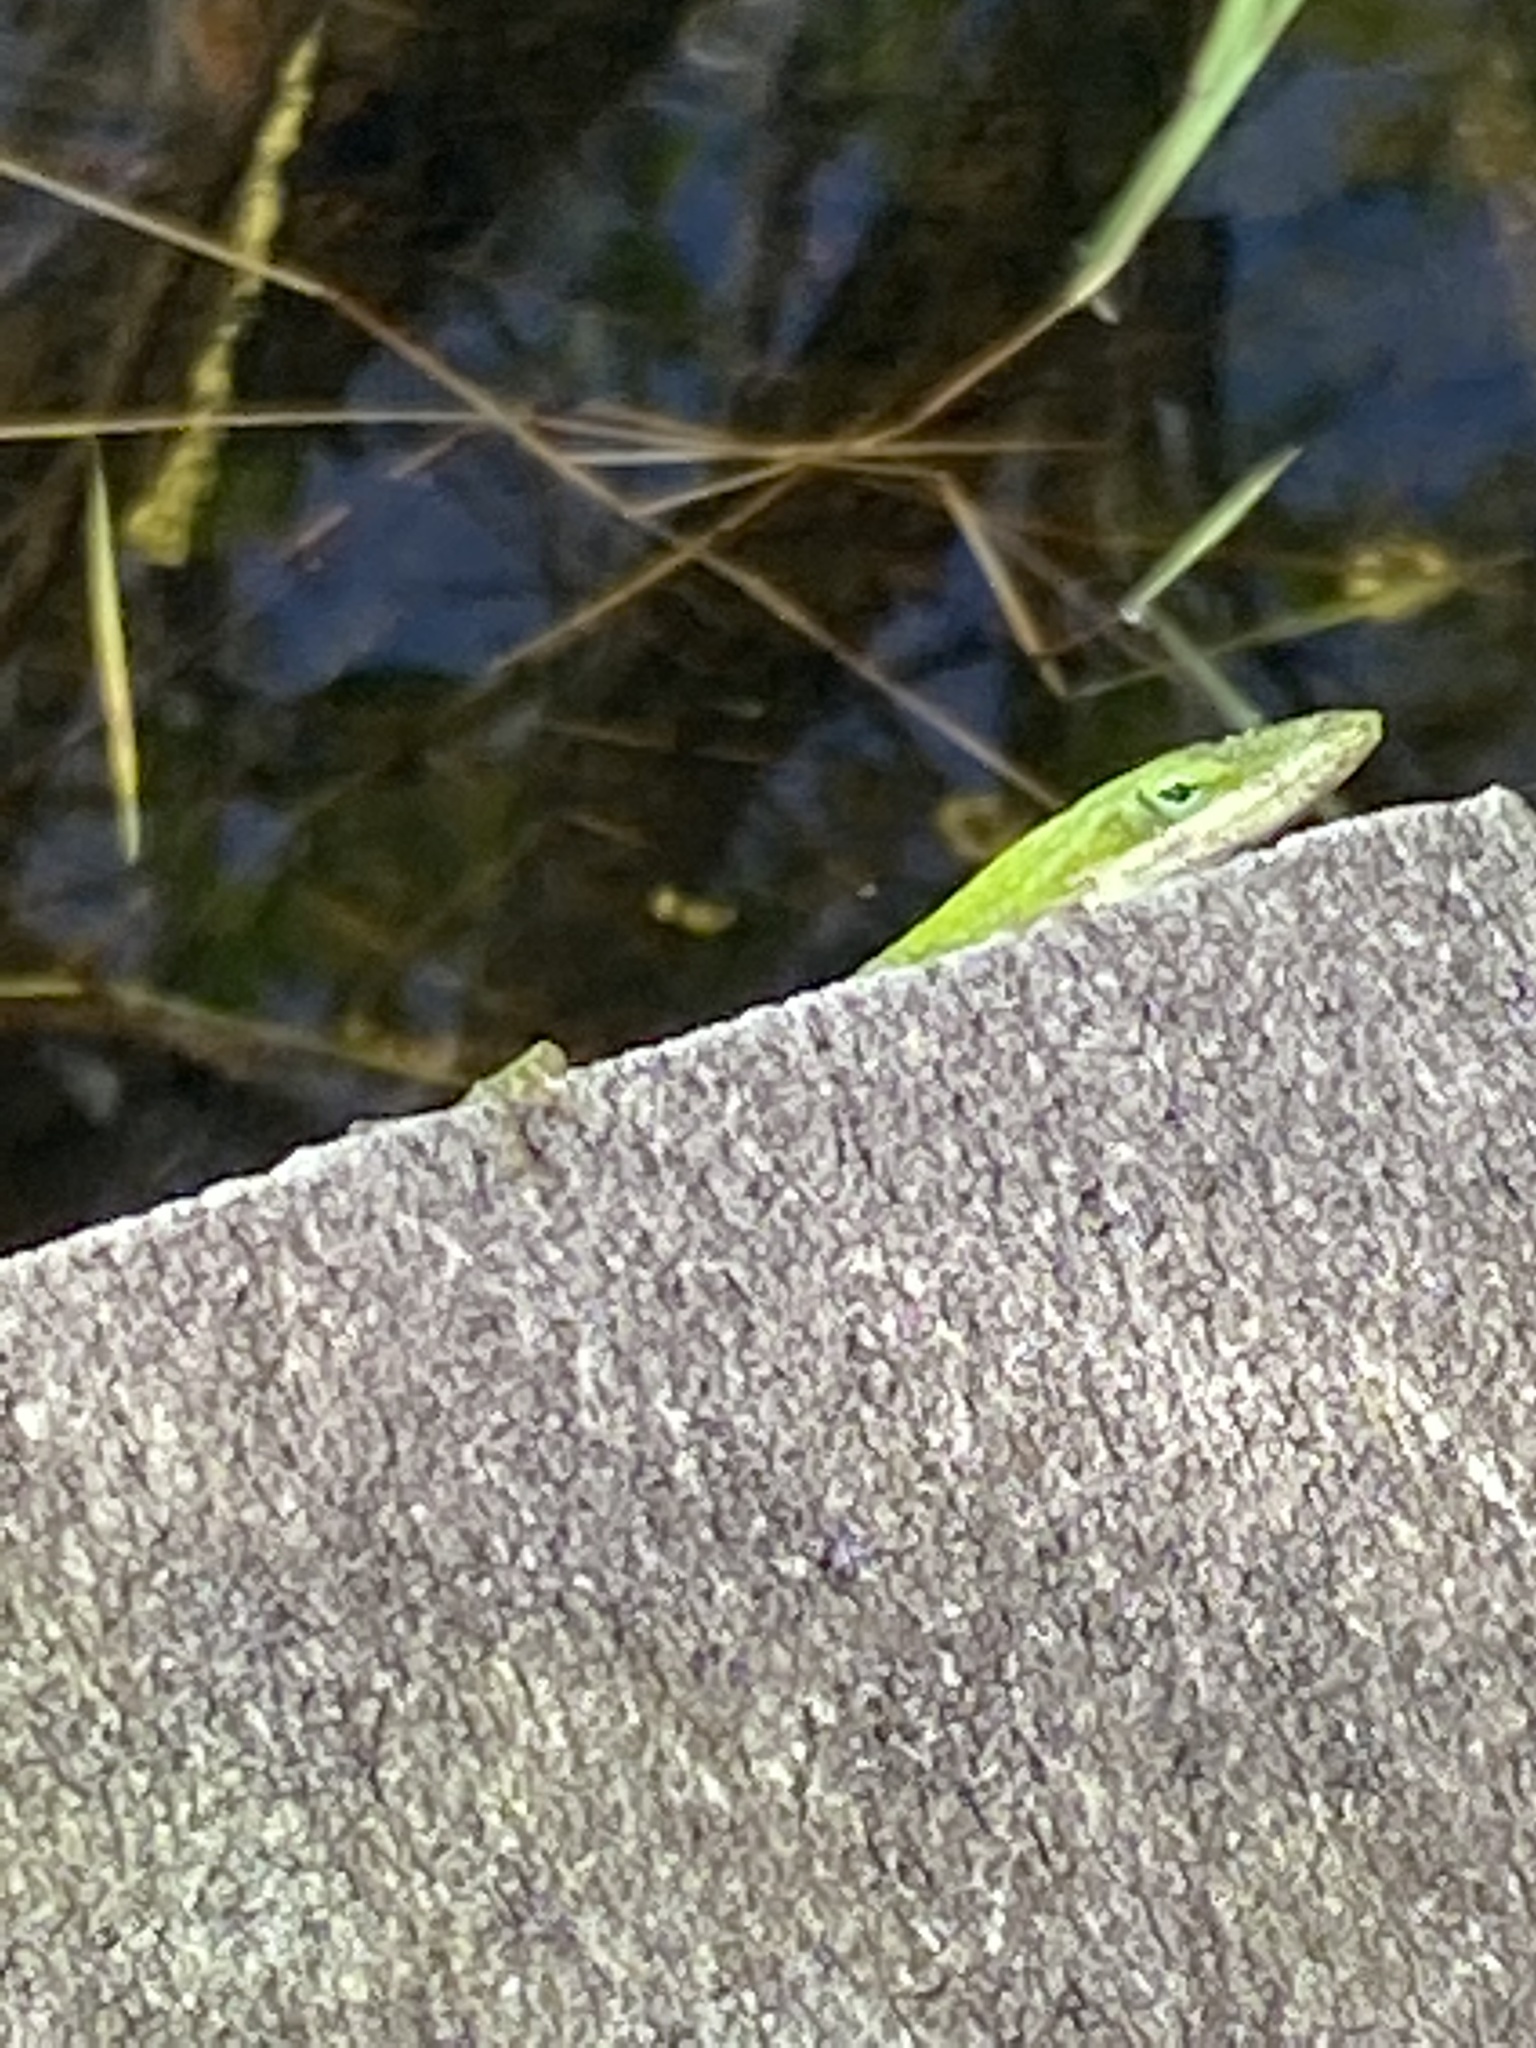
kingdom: Animalia
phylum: Chordata
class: Squamata
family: Dactyloidae
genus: Anolis
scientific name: Anolis carolinensis
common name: Green anole
